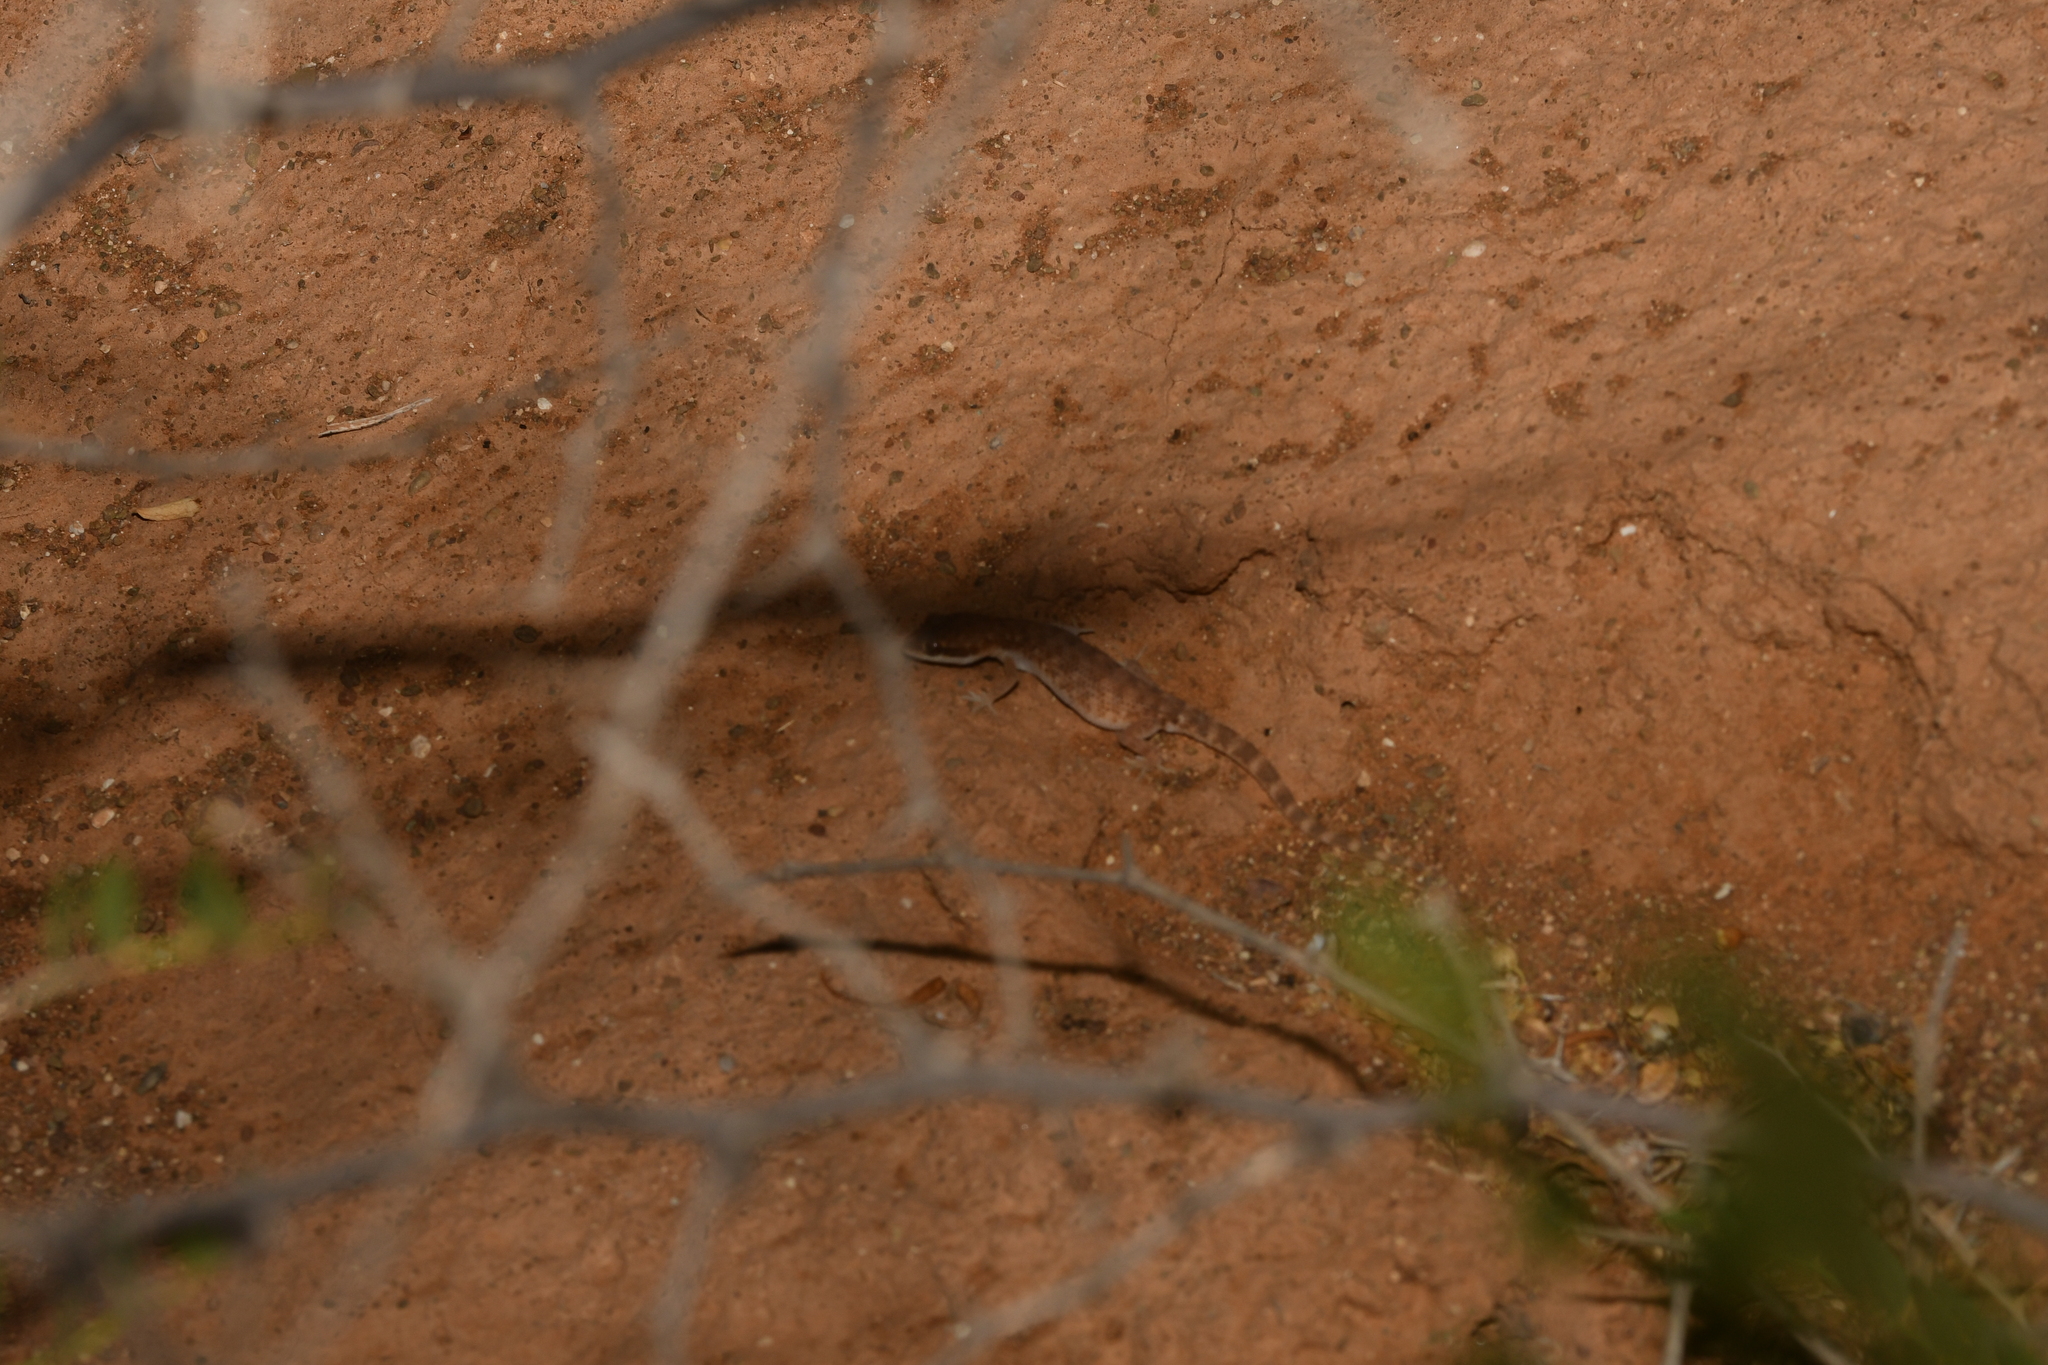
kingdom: Animalia
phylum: Chordata
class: Squamata
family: Gekkonidae
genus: Tropiocolotes
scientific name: Tropiocolotes algericus
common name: Algerian sand gecko
